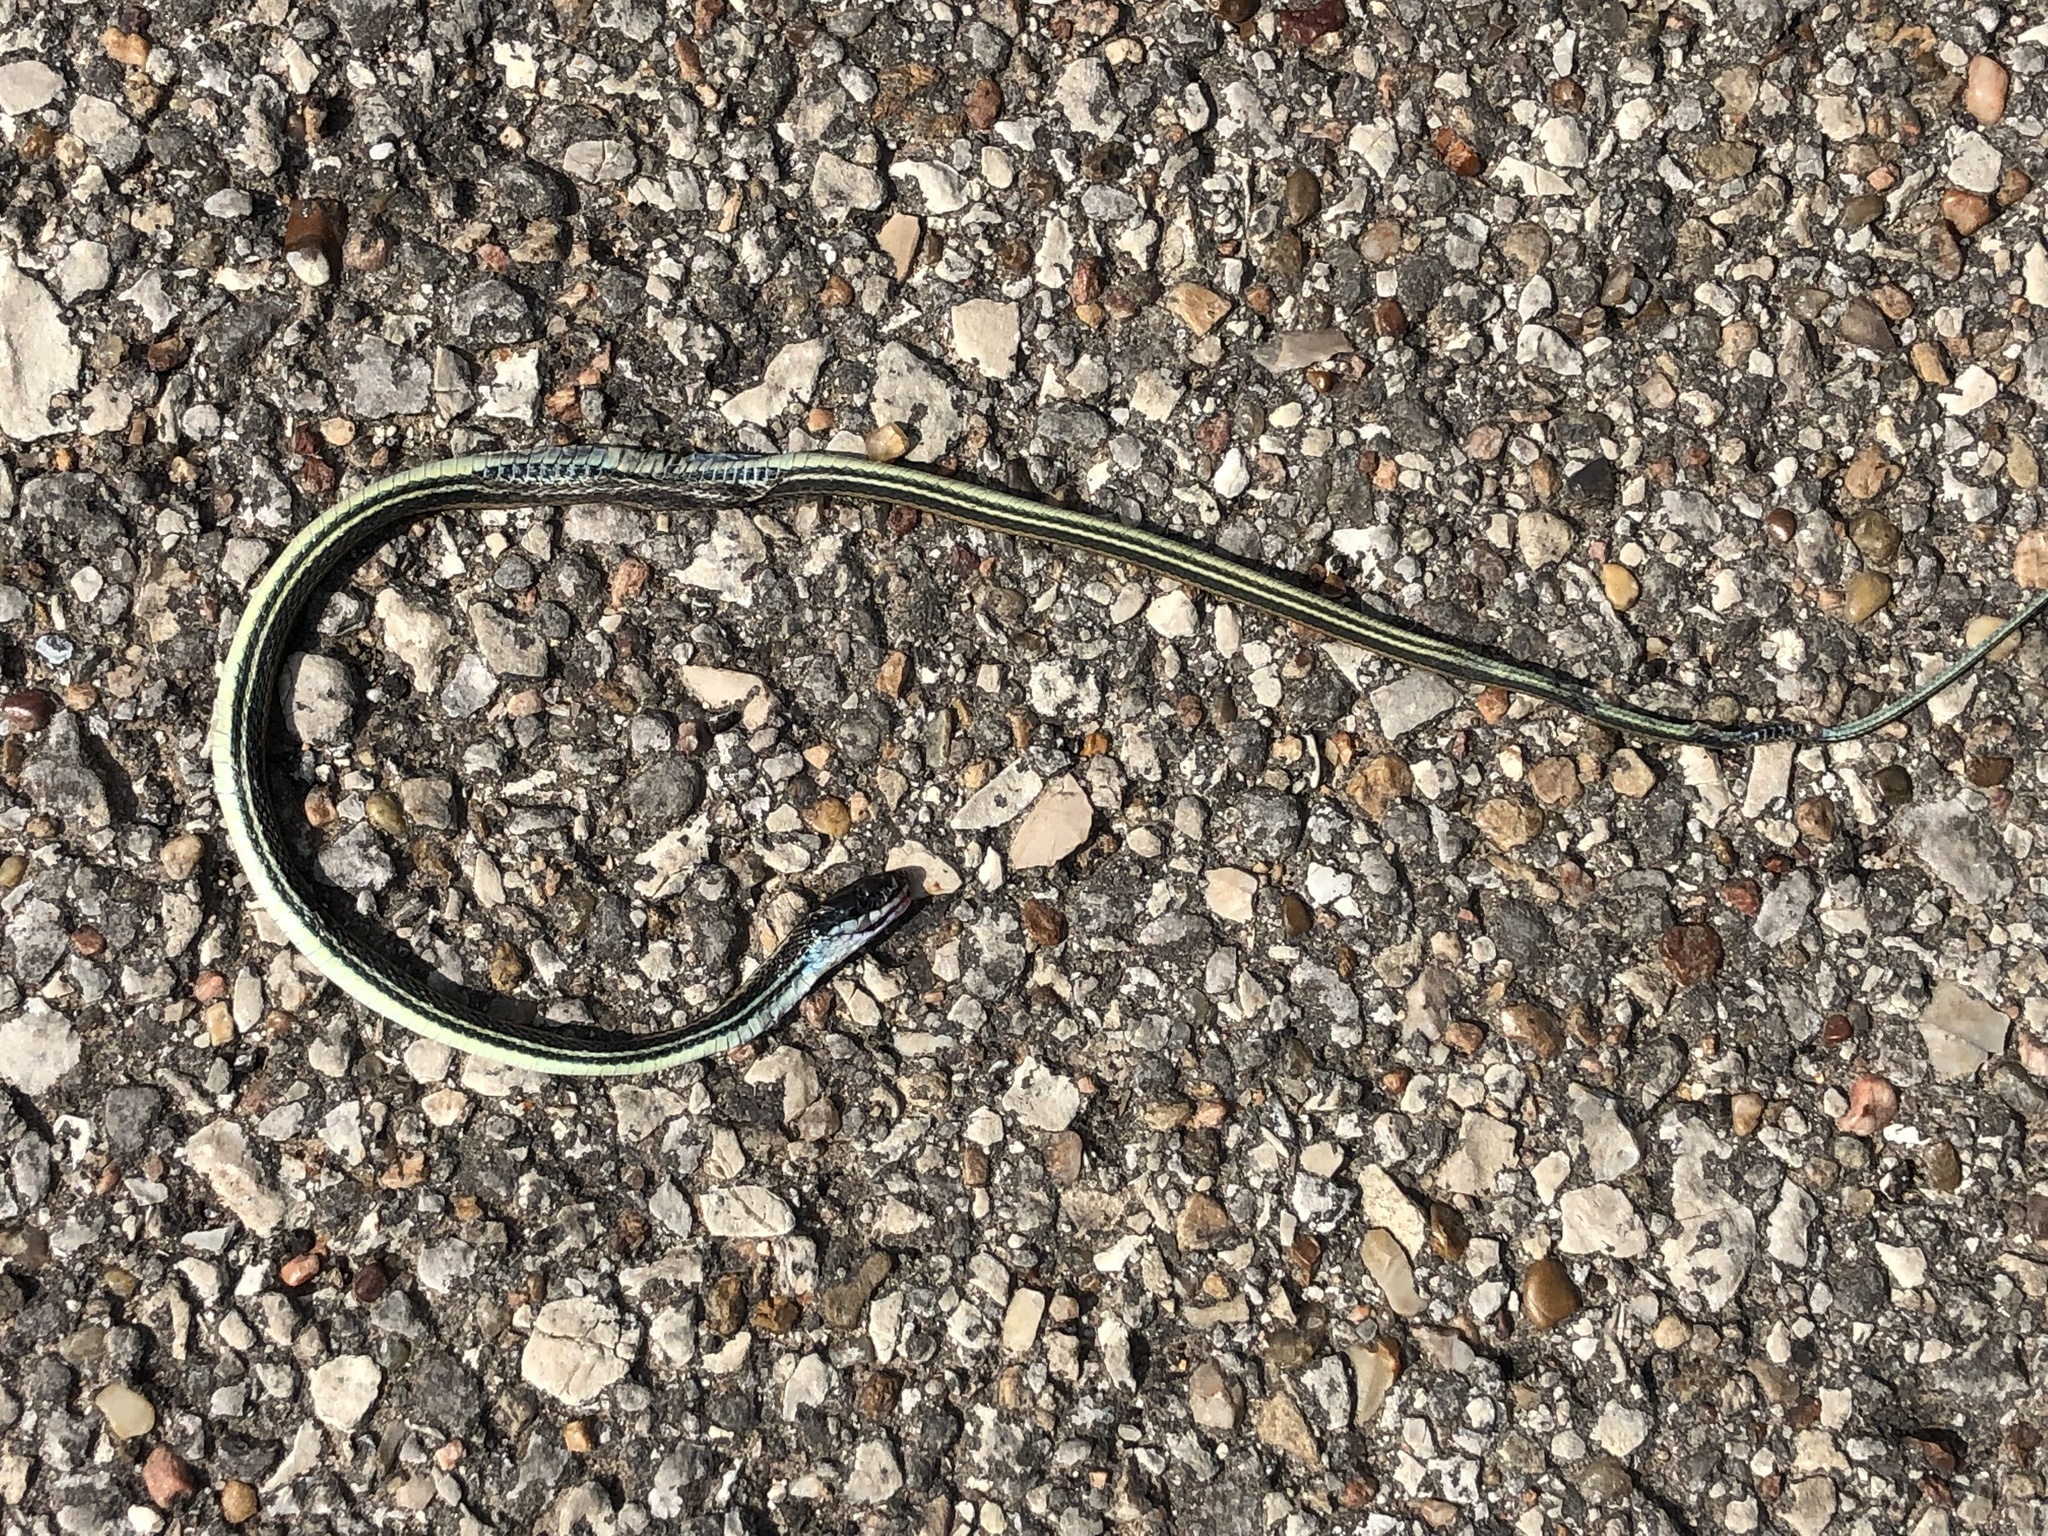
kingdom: Animalia
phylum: Chordata
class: Squamata
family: Colubridae
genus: Thamnophis
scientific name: Thamnophis proximus
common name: Western ribbon snake
